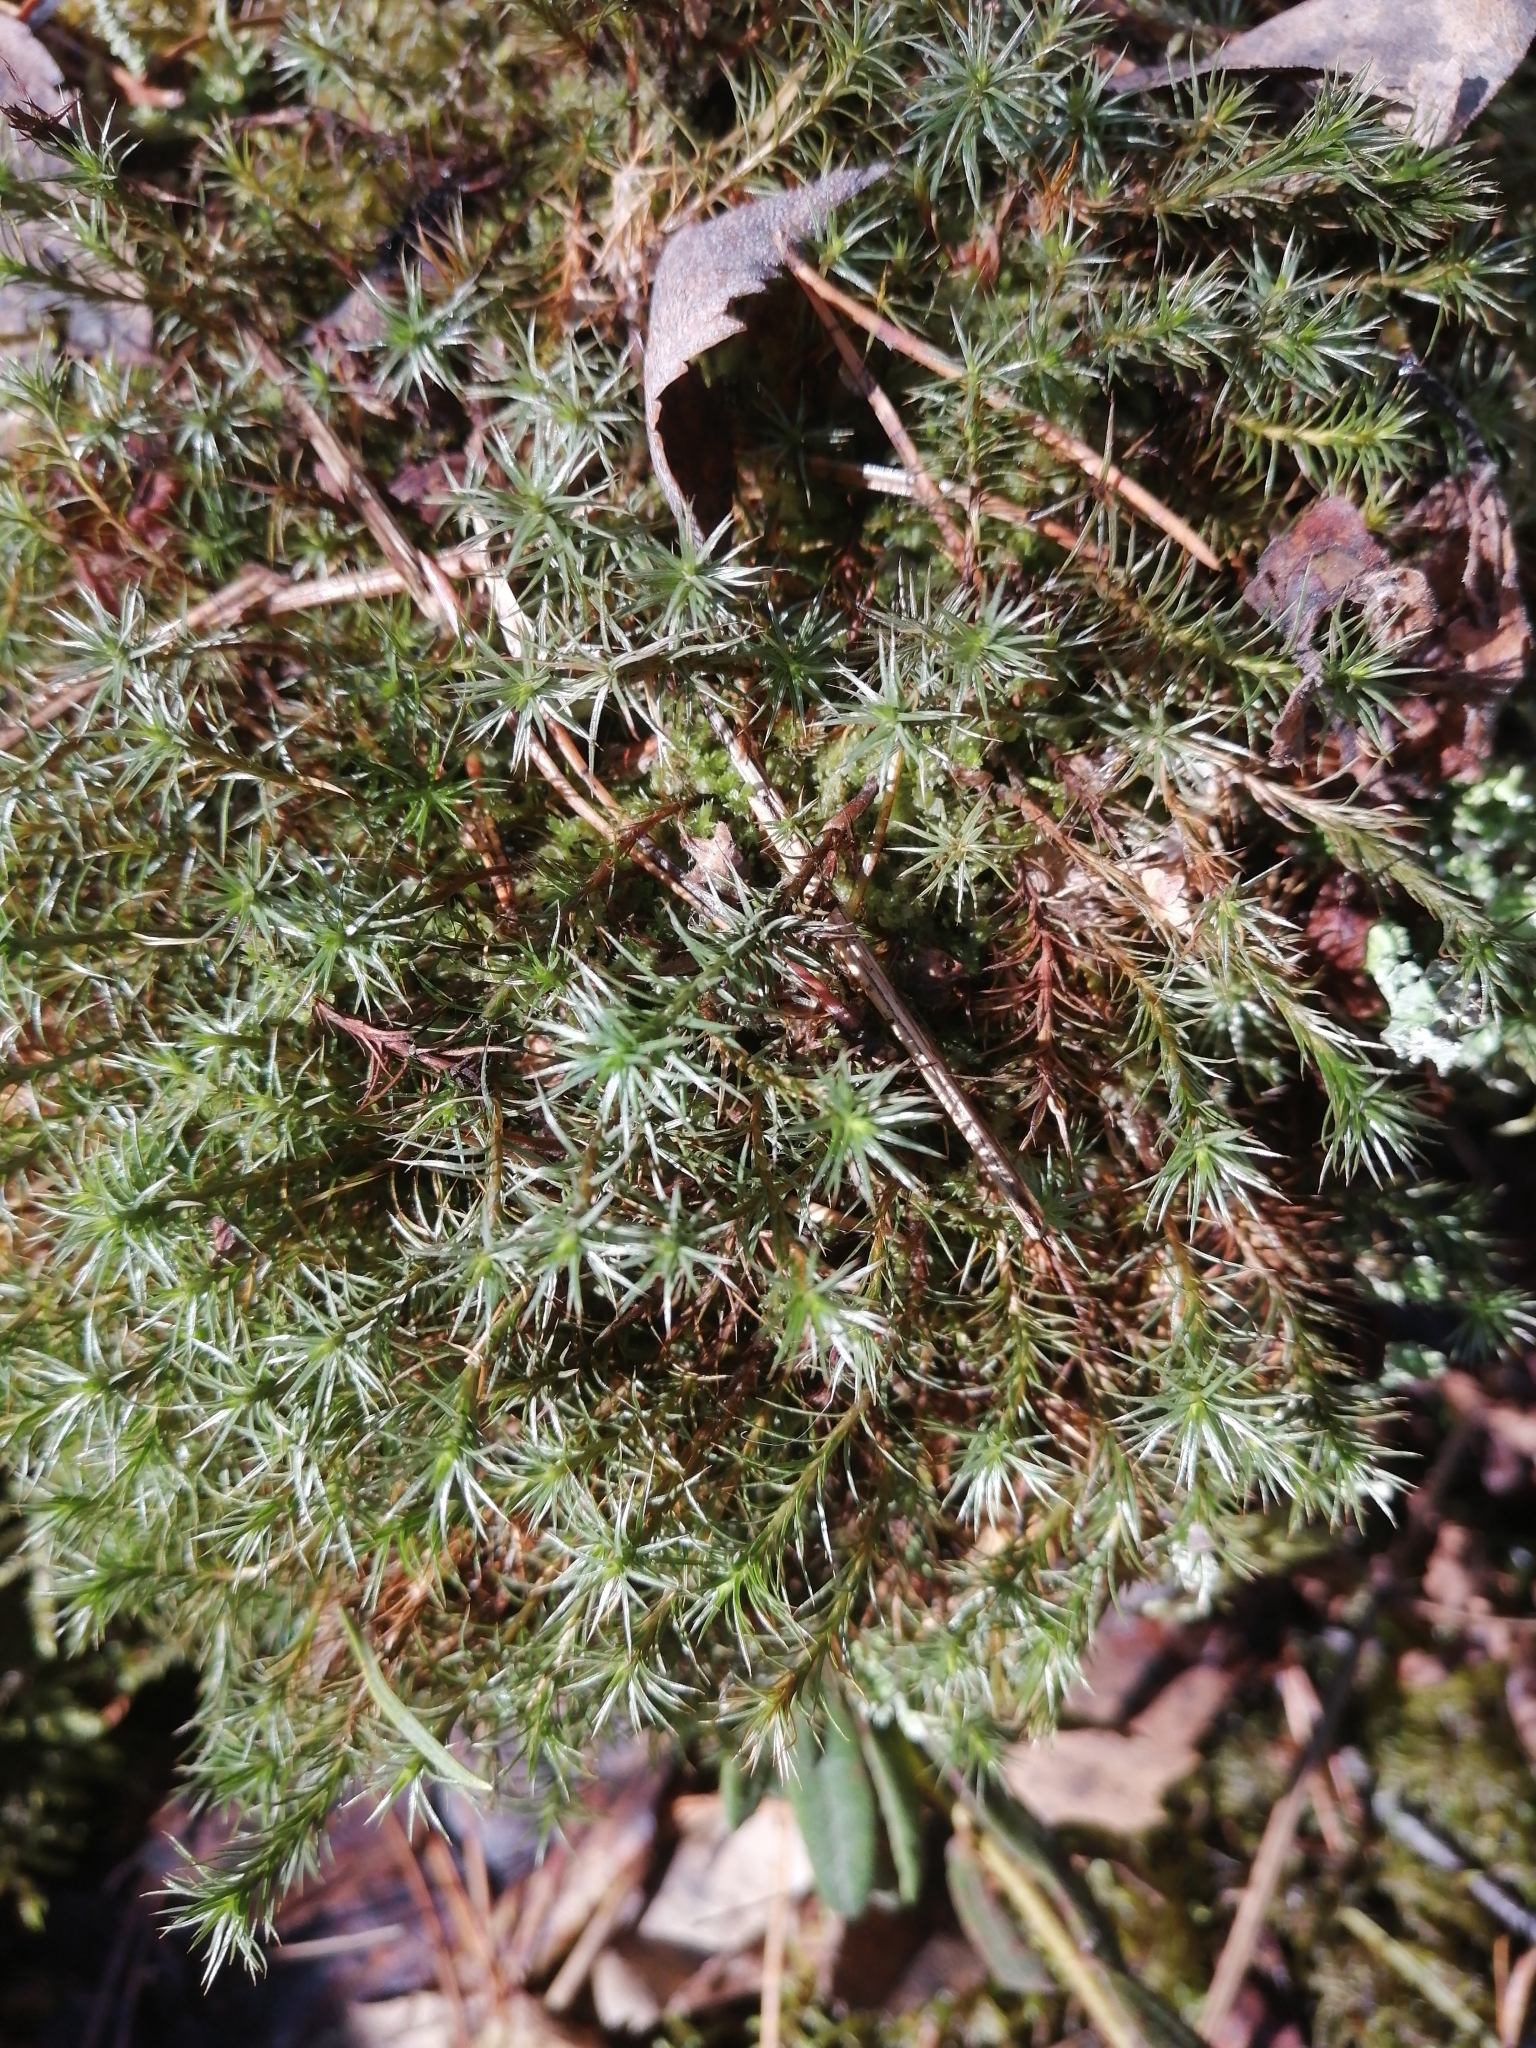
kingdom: Plantae
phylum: Bryophyta
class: Polytrichopsida
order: Polytrichales
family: Polytrichaceae
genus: Polytrichum
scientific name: Polytrichum juniperinum
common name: Juniper haircap moss
